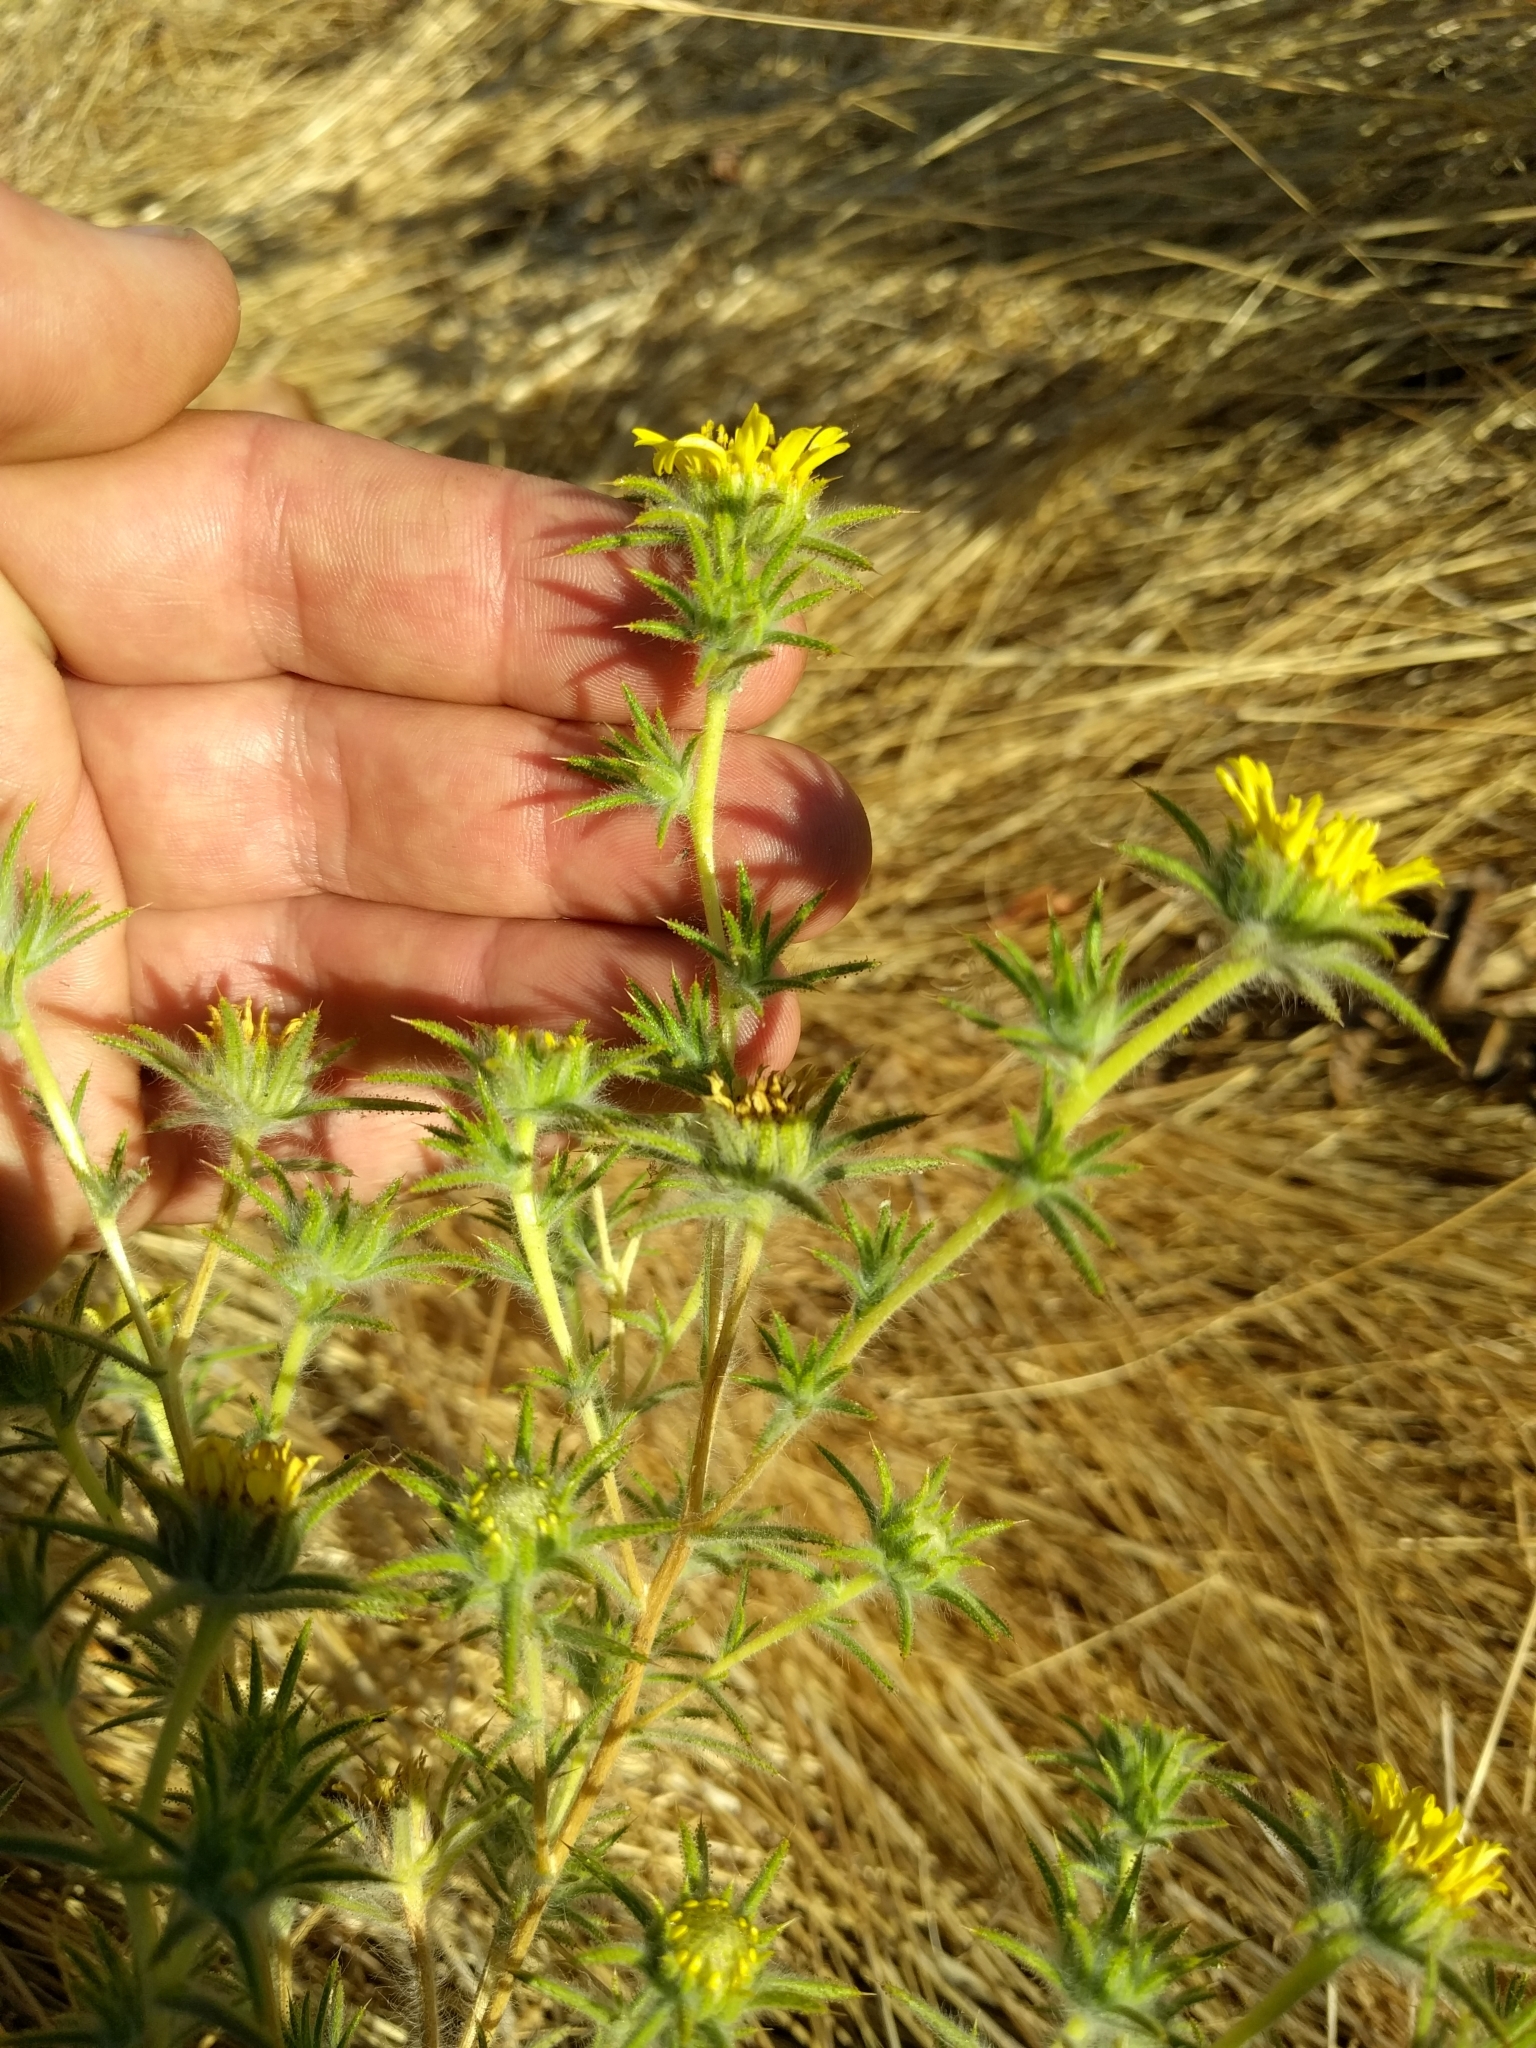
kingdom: Plantae
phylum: Tracheophyta
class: Magnoliopsida
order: Asterales
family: Asteraceae
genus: Centromadia
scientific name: Centromadia fitchii
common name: Fitch's spikeweed
